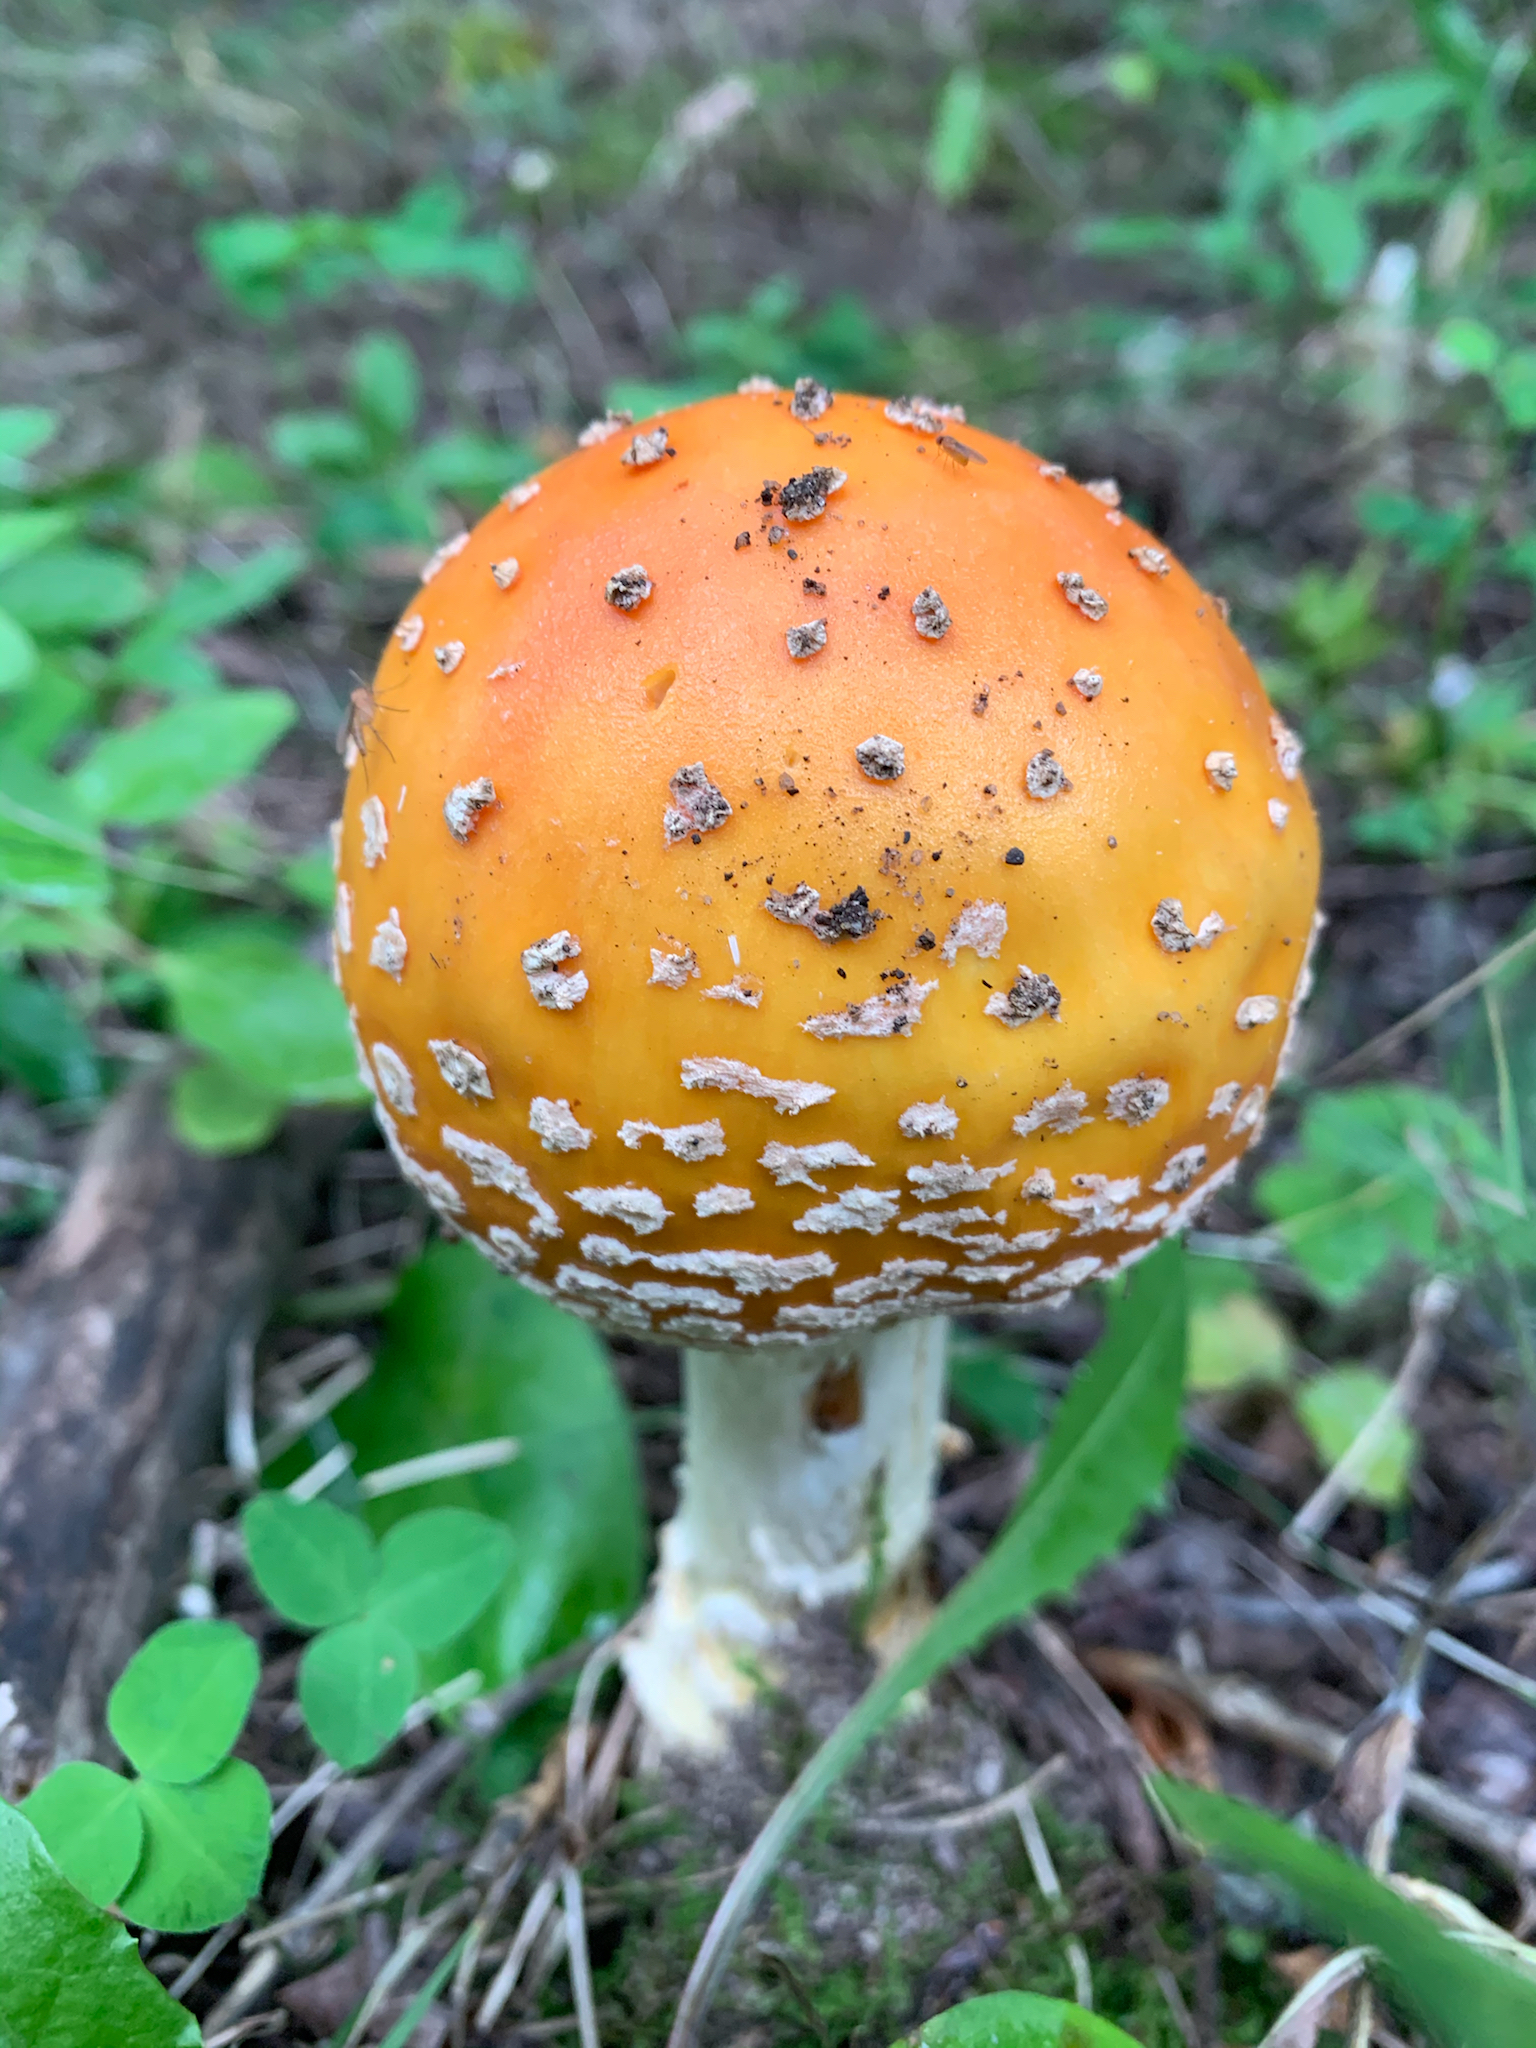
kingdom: Fungi
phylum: Basidiomycota
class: Agaricomycetes
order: Agaricales
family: Amanitaceae
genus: Amanita
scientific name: Amanita muscaria
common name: Fly agaric
